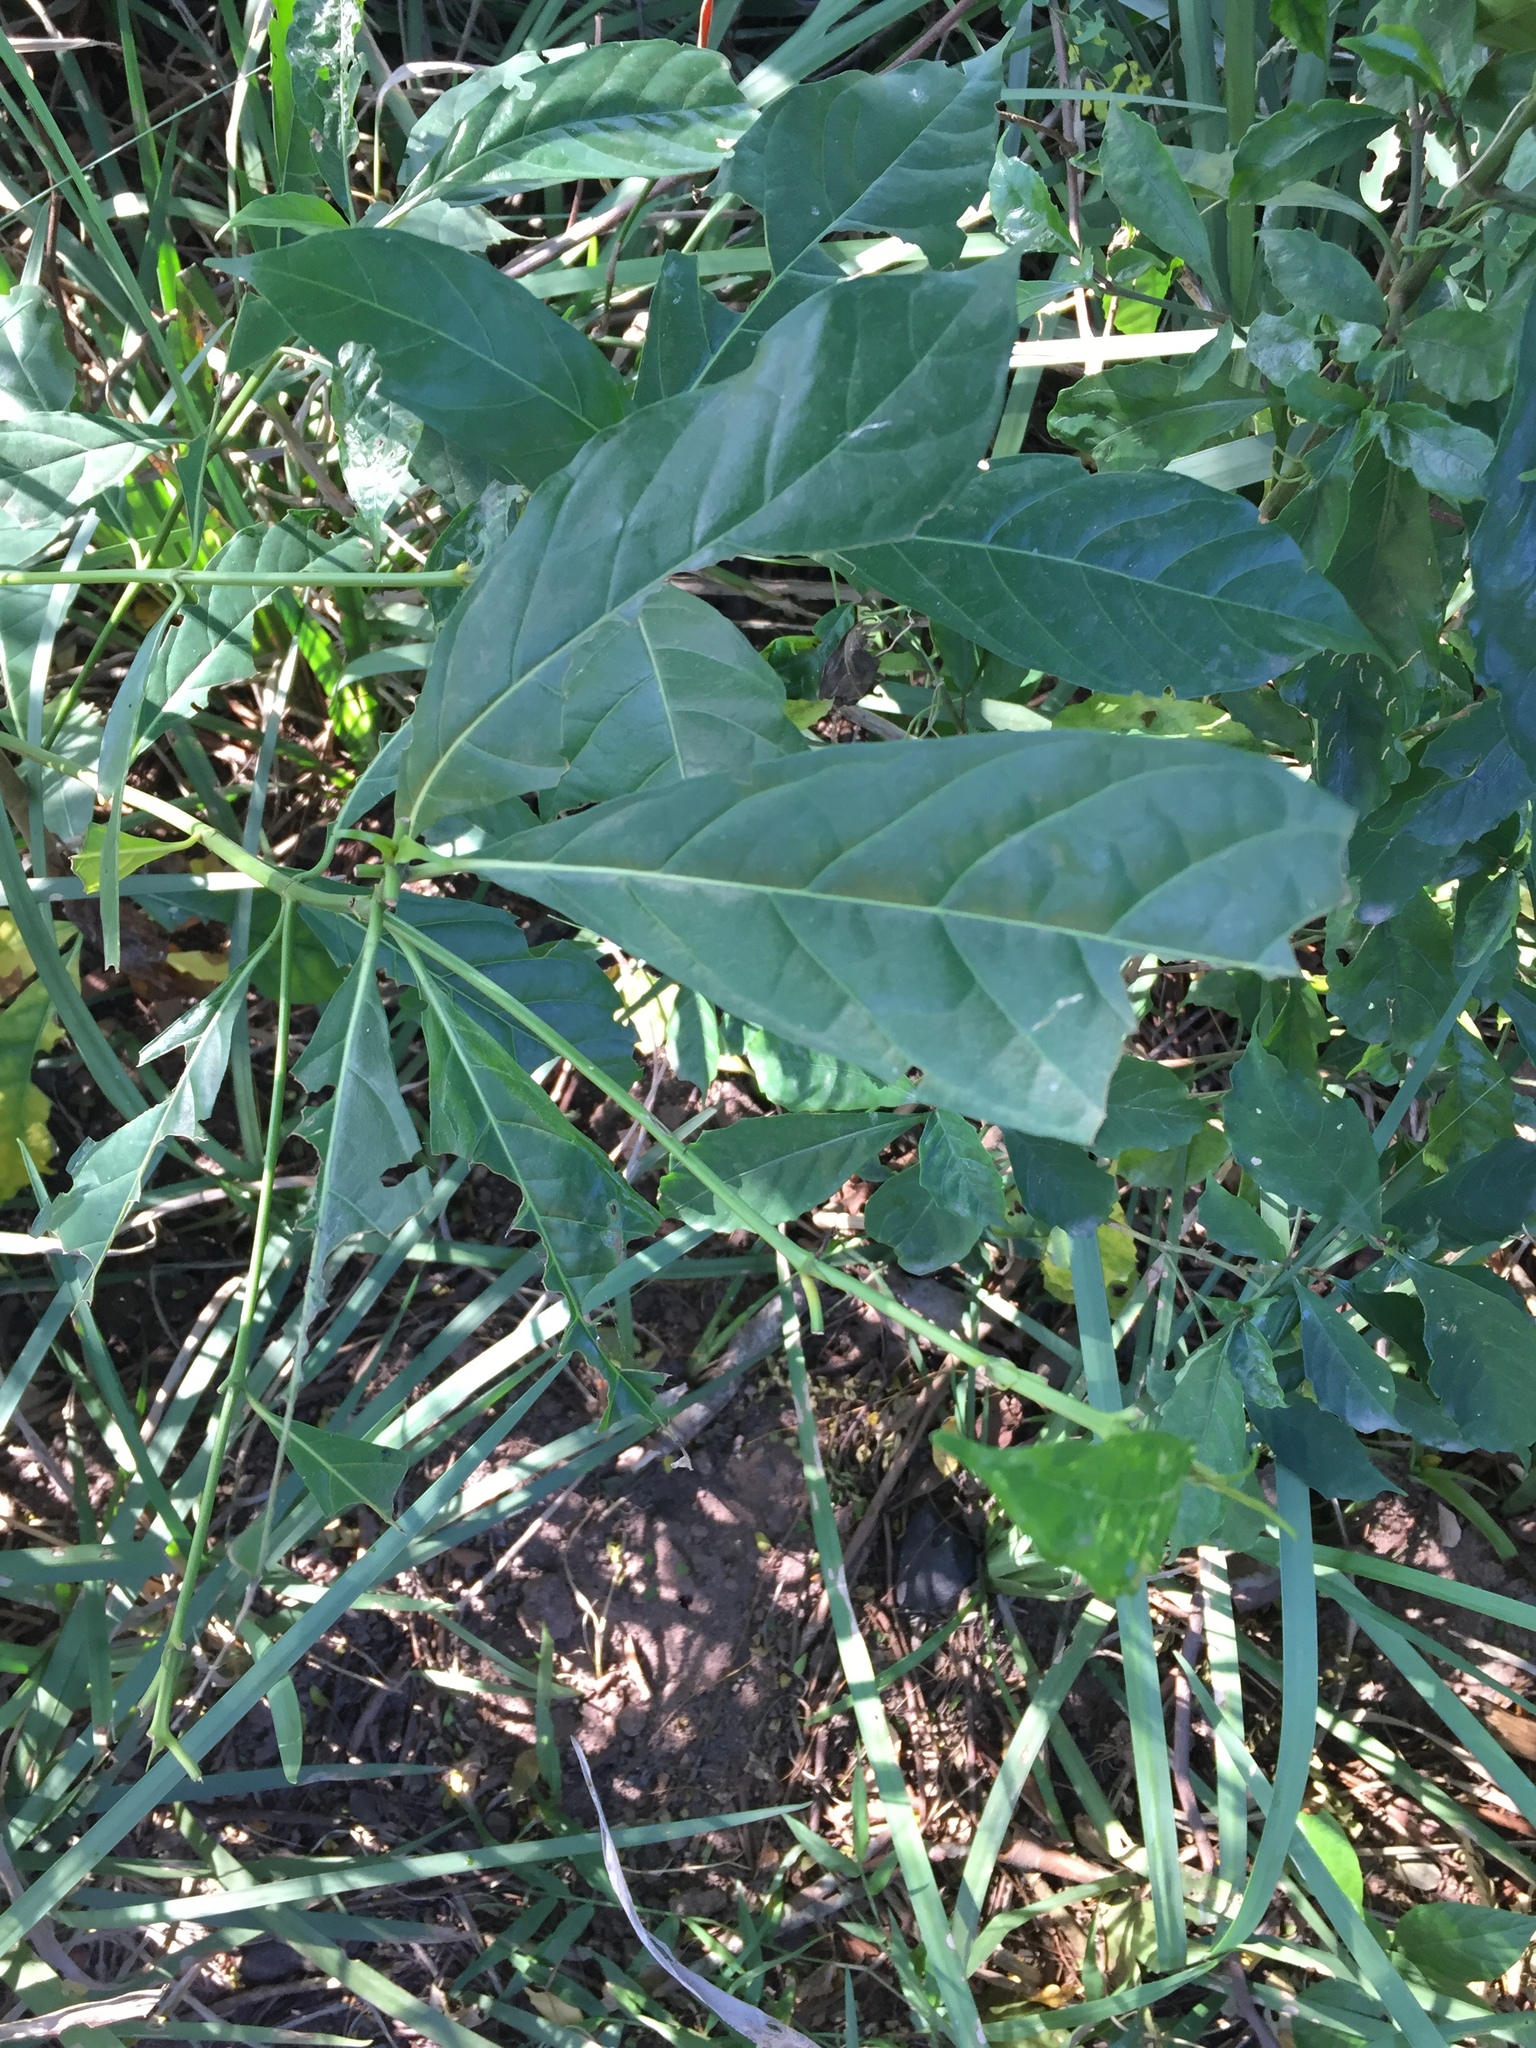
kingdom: Plantae
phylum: Tracheophyta
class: Magnoliopsida
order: Gentianales
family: Rubiaceae
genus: Tarenna
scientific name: Tarenna pavettoides
